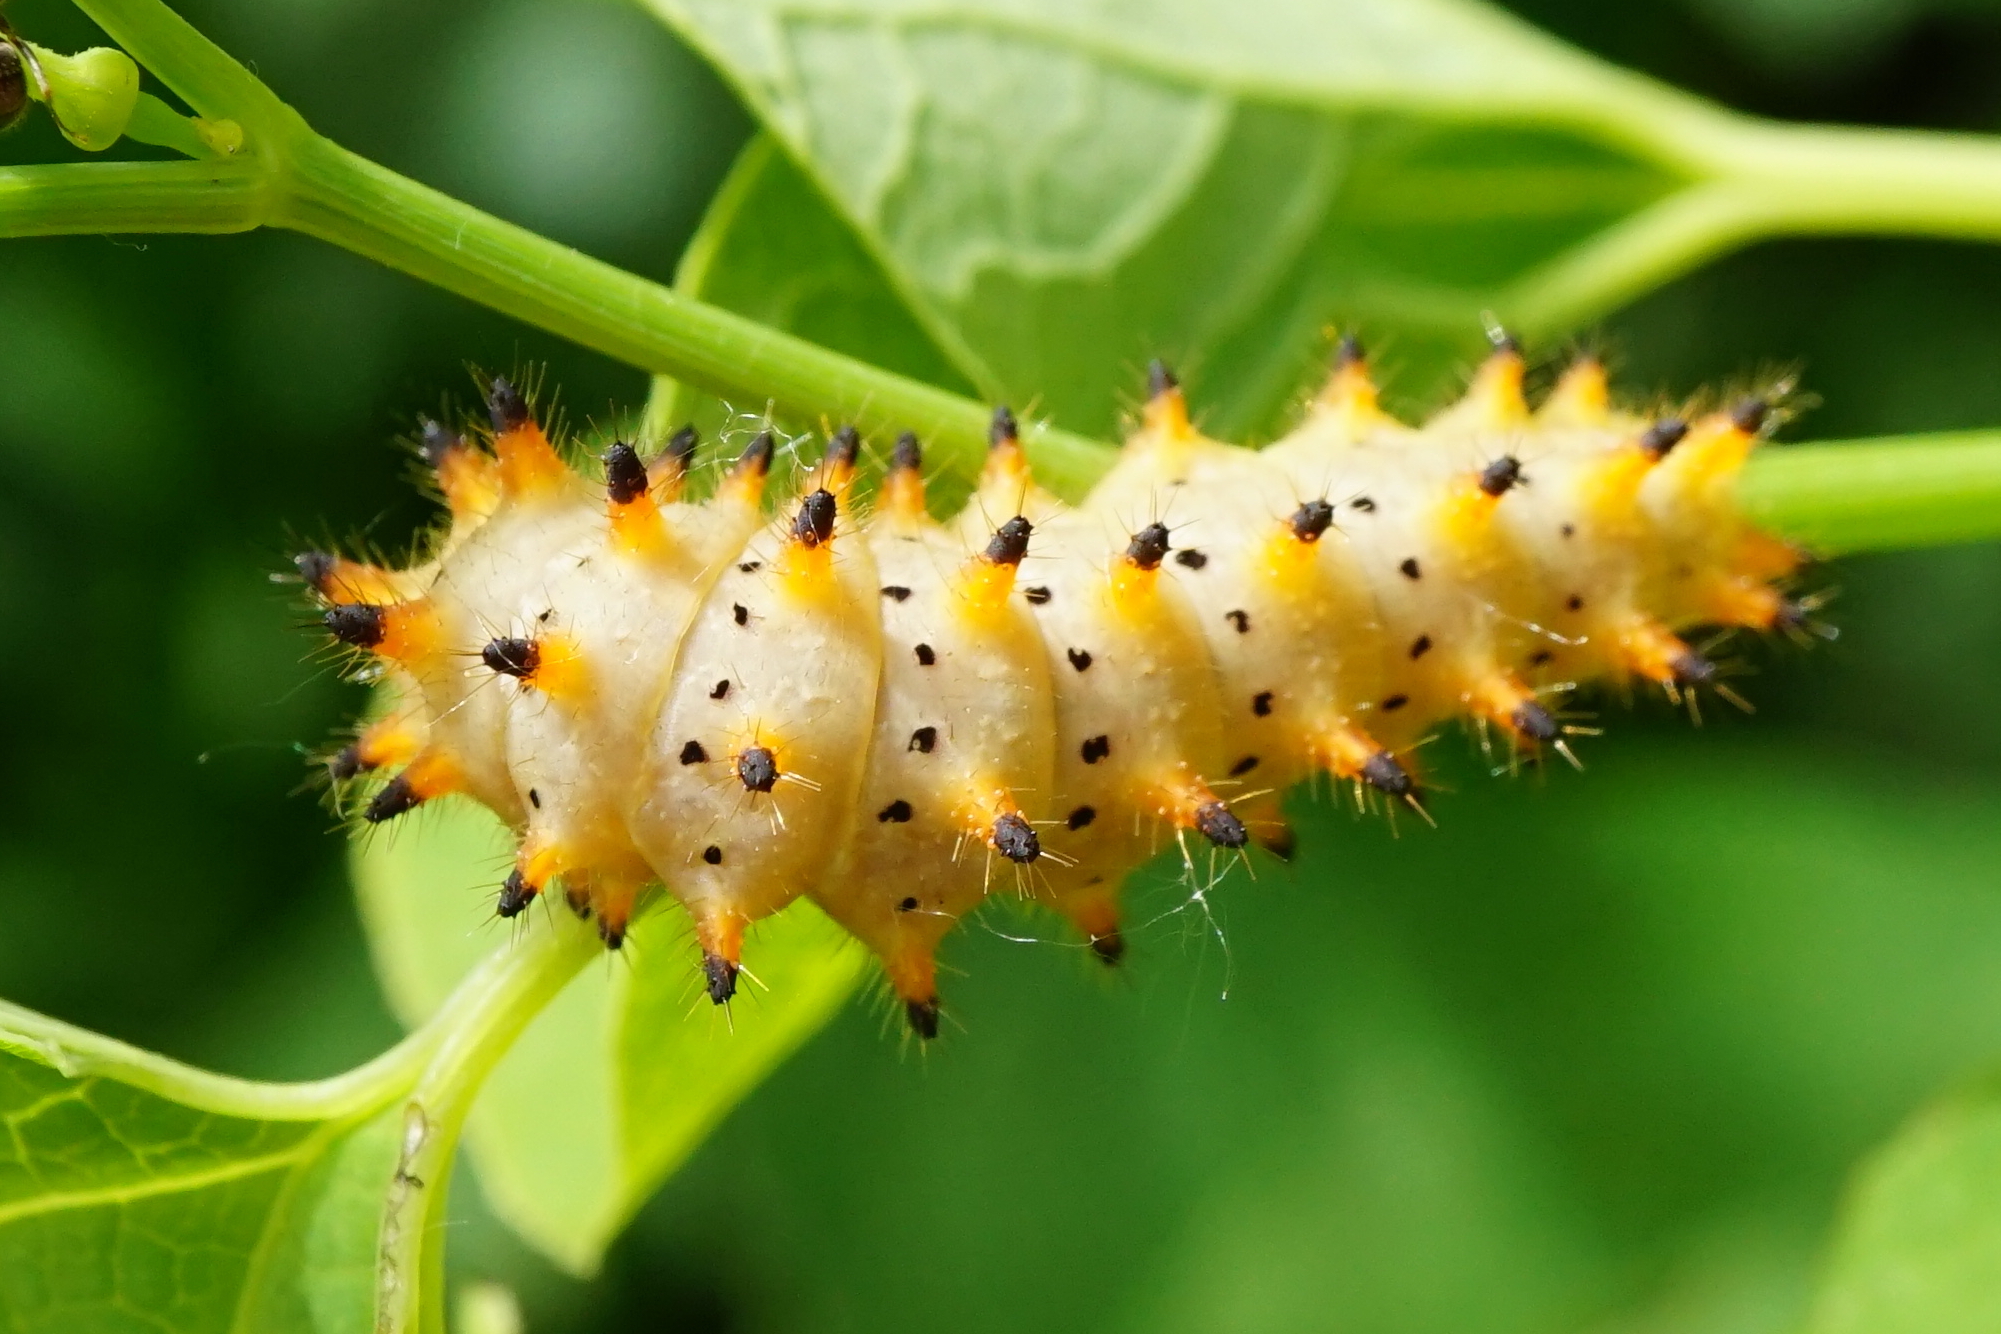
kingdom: Animalia
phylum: Arthropoda
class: Insecta
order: Lepidoptera
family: Papilionidae
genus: Zerynthia
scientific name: Zerynthia polyxena
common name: Southern festoon
